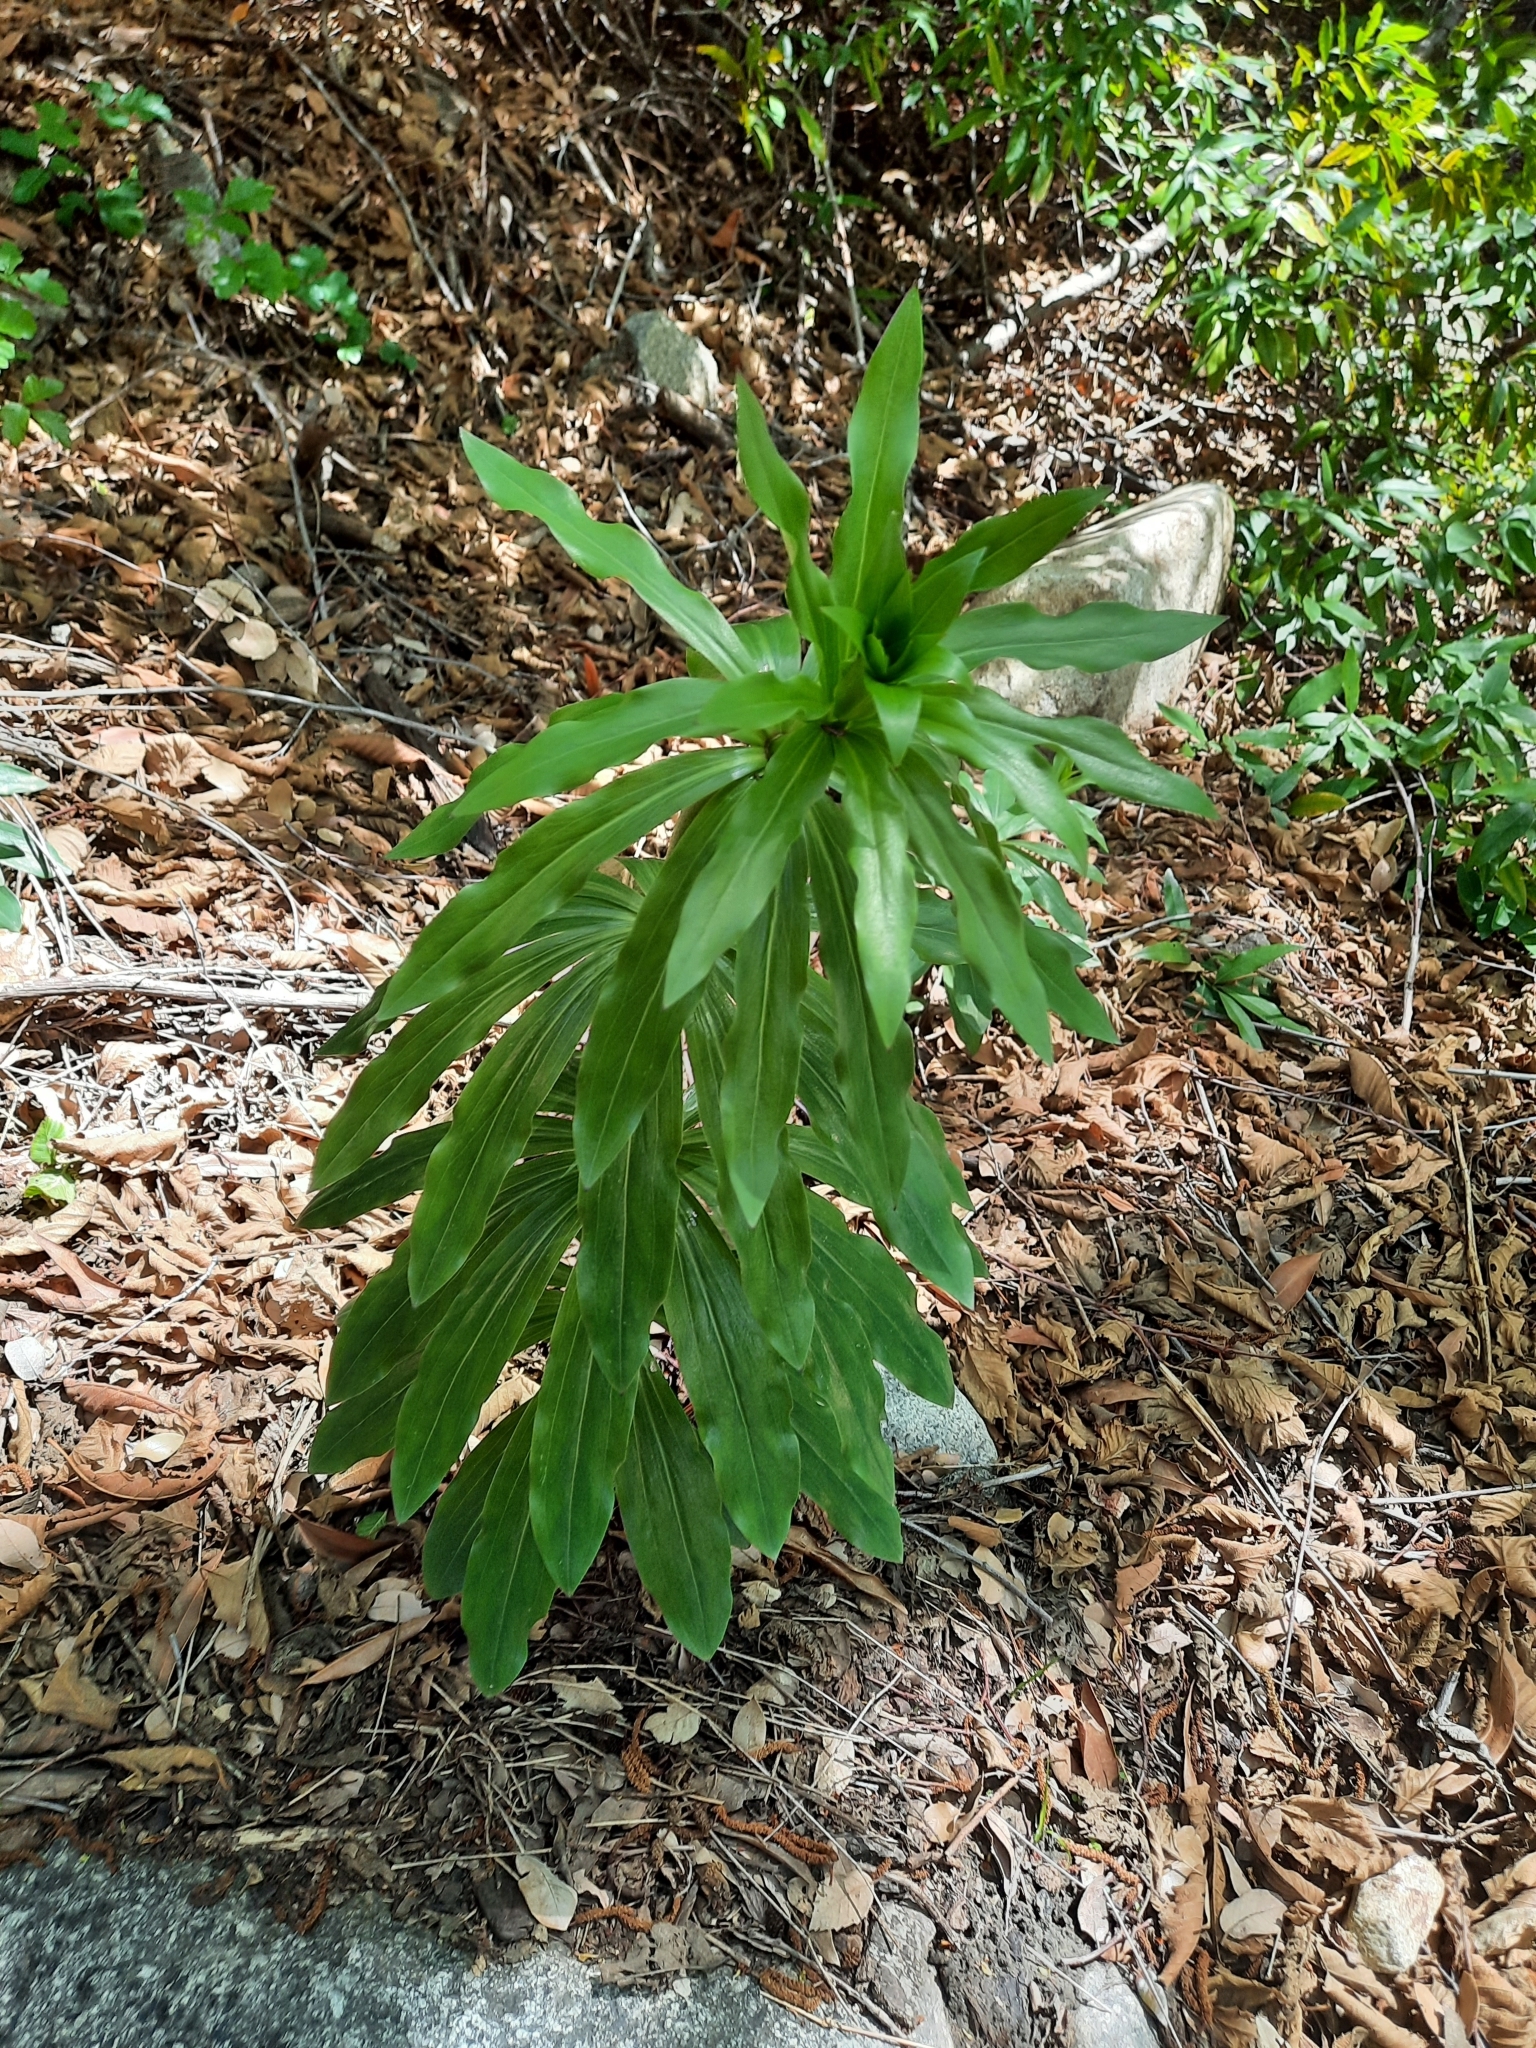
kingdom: Plantae
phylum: Tracheophyta
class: Liliopsida
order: Liliales
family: Liliaceae
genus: Lilium
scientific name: Lilium humboldtii
